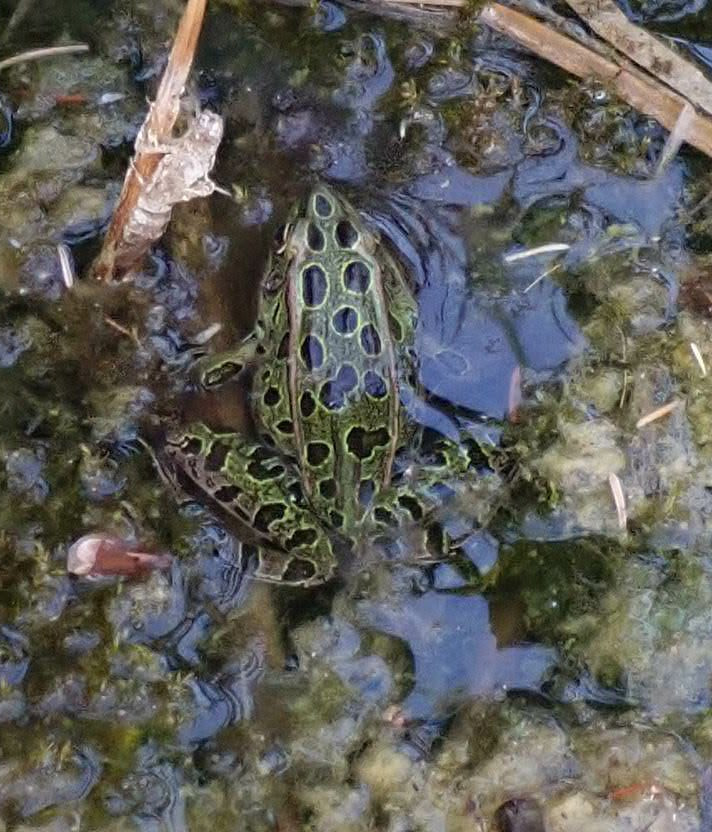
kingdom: Animalia
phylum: Chordata
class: Amphibia
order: Anura
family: Ranidae
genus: Lithobates
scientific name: Lithobates pipiens
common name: Northern leopard frog
